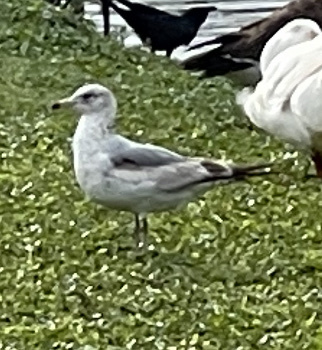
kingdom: Animalia
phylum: Chordata
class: Aves
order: Charadriiformes
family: Laridae
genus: Larus
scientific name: Larus delawarensis
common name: Ring-billed gull
